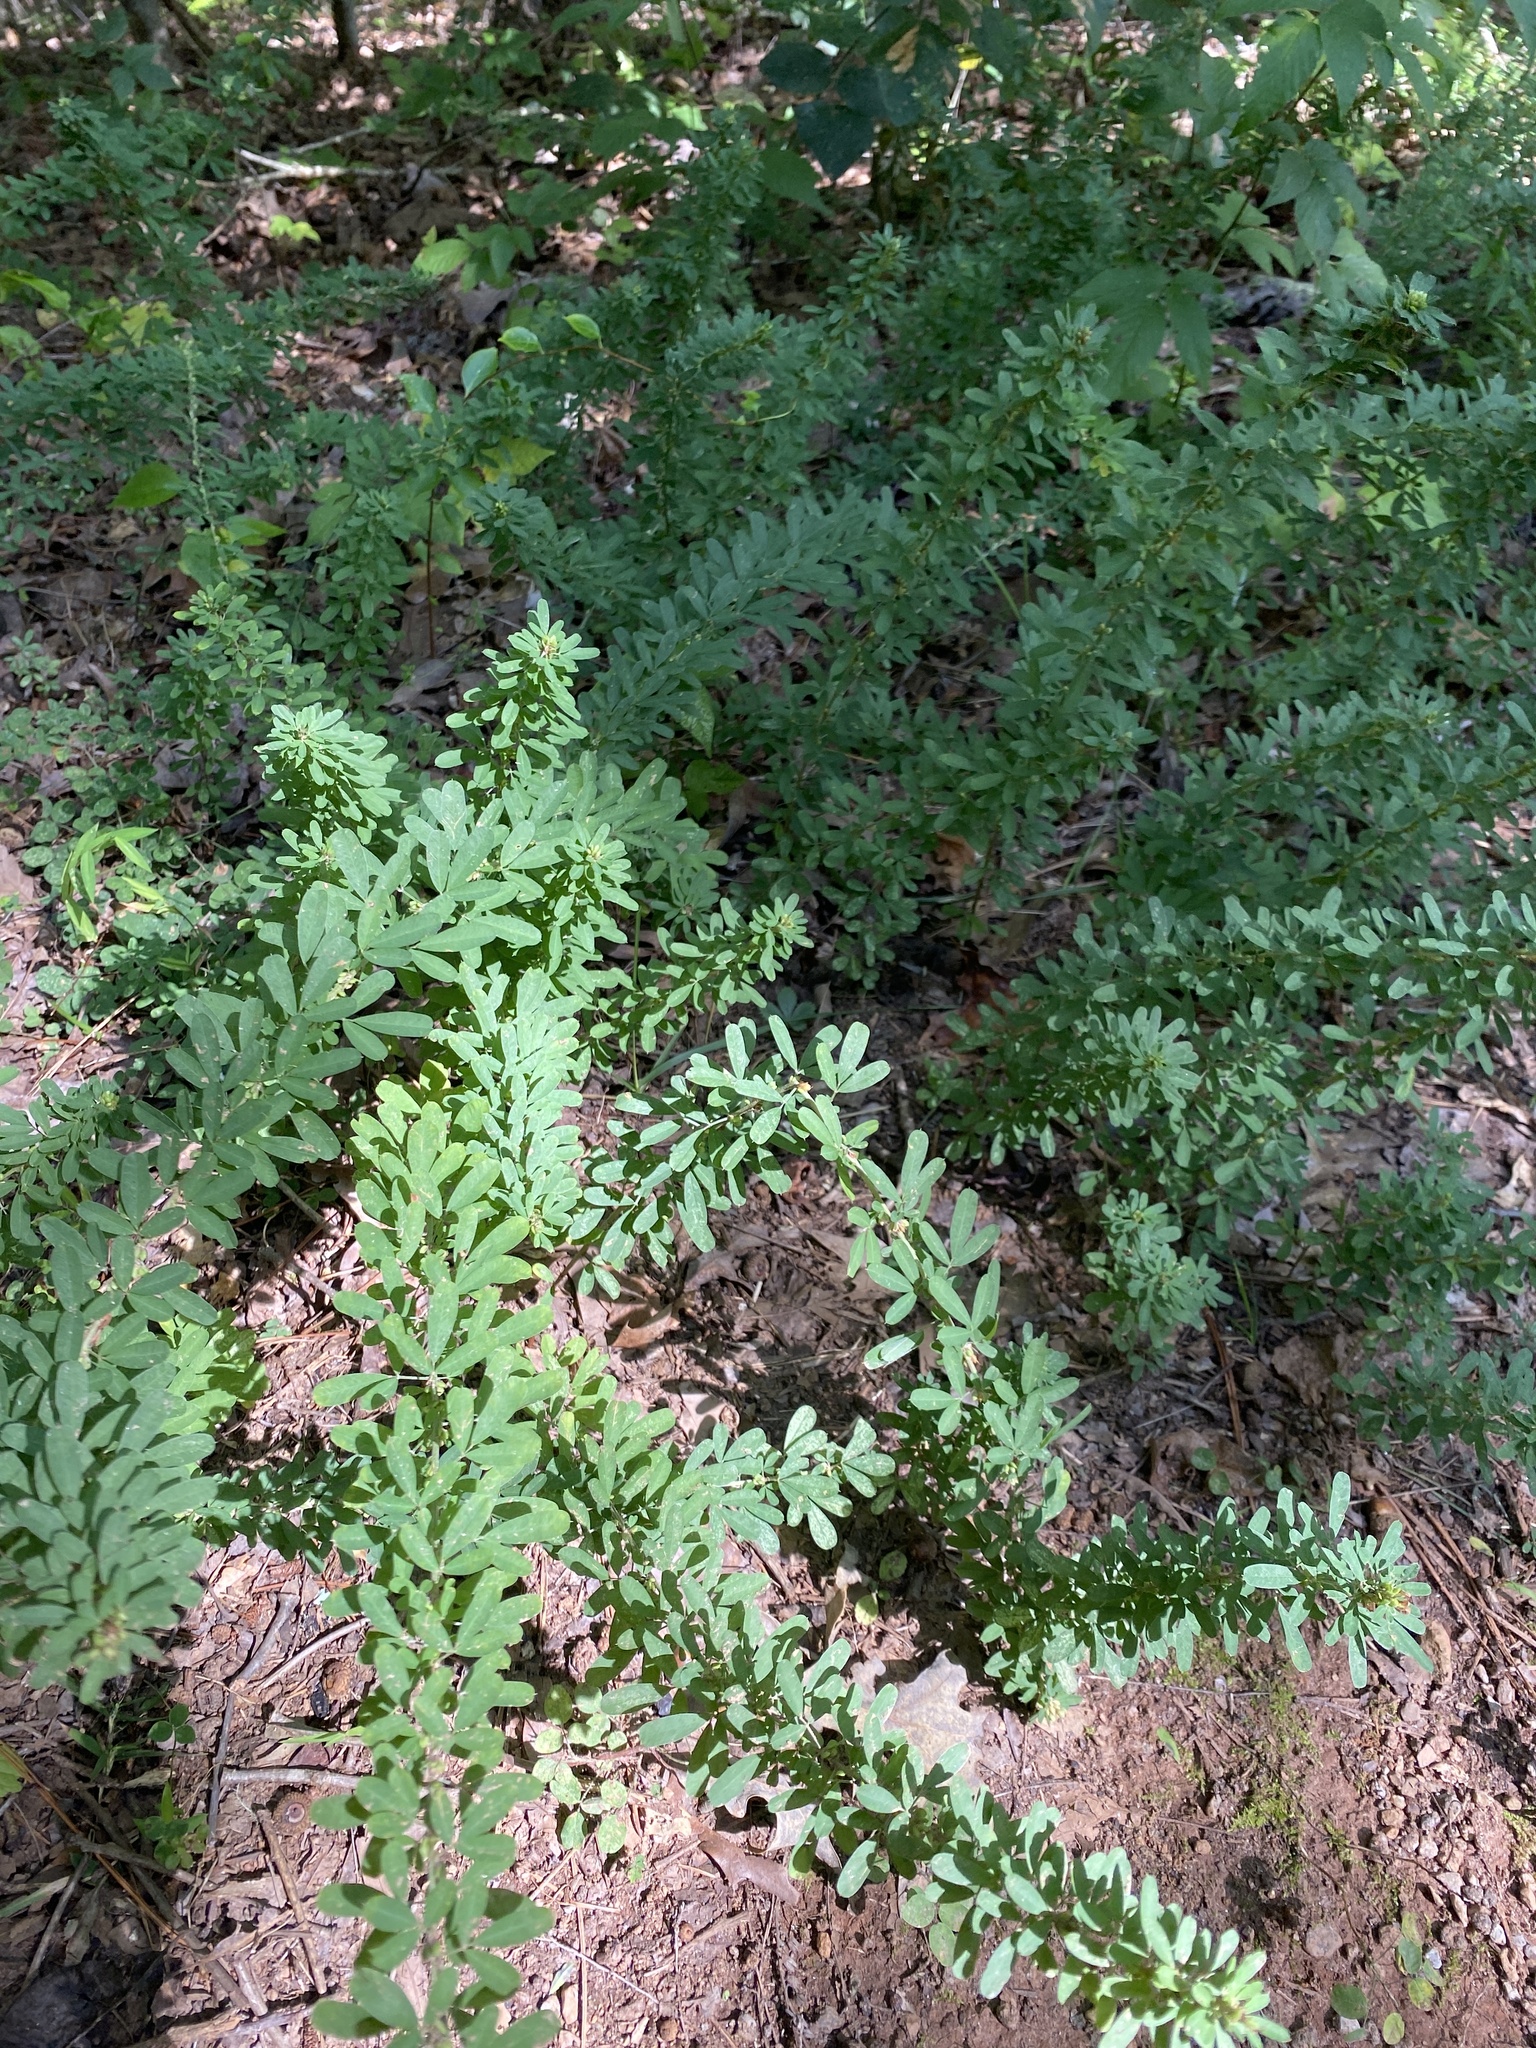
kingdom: Plantae
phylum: Tracheophyta
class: Magnoliopsida
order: Fabales
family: Fabaceae
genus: Lespedeza
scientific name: Lespedeza cuneata
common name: Chinese bush-clover
